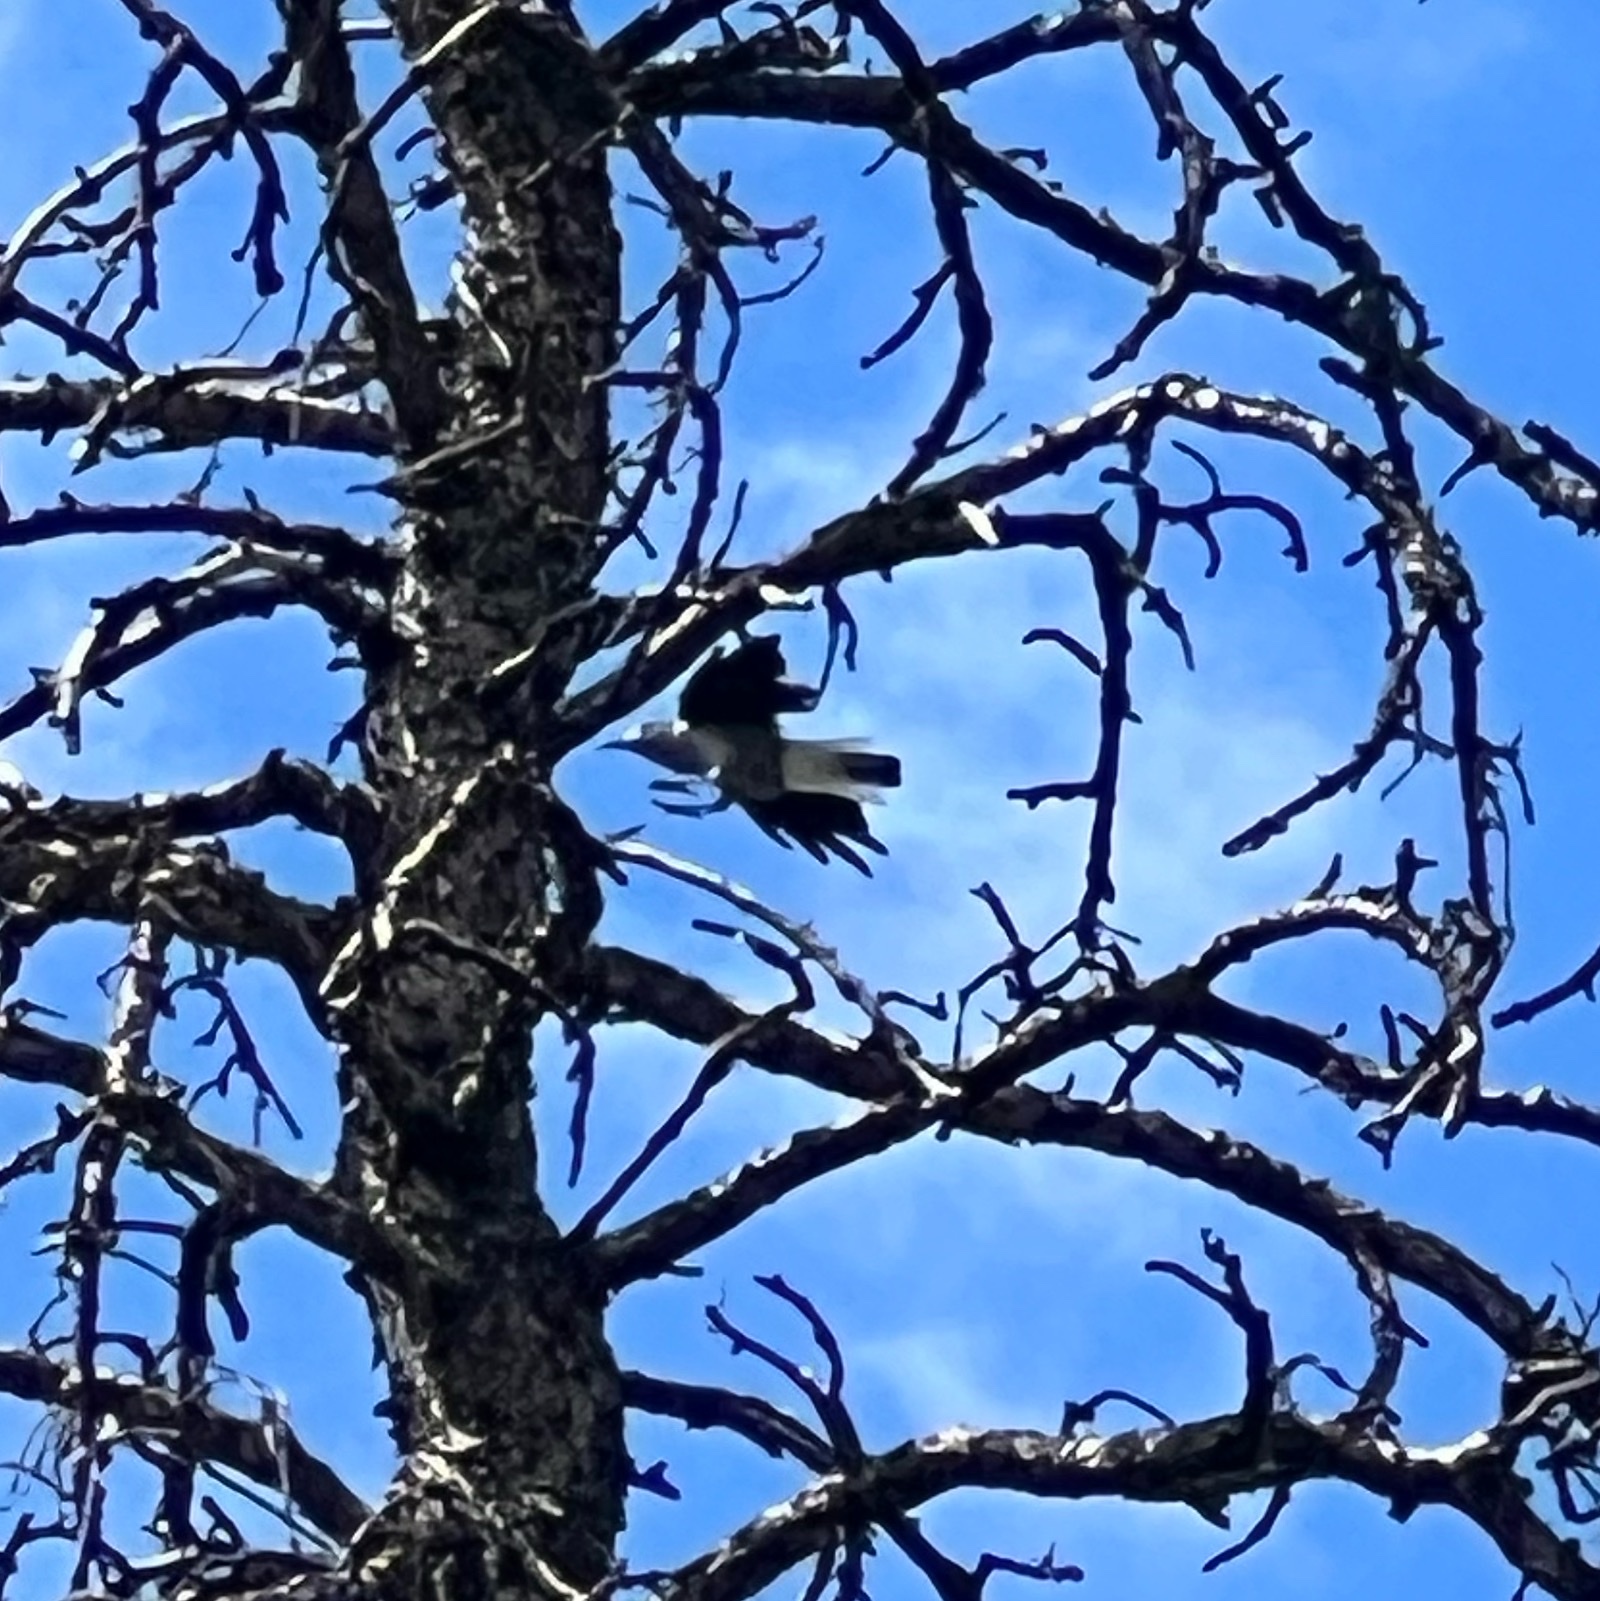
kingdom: Animalia
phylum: Chordata
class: Aves
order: Passeriformes
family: Corvidae
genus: Nucifraga
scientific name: Nucifraga columbiana
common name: Clark's nutcracker
